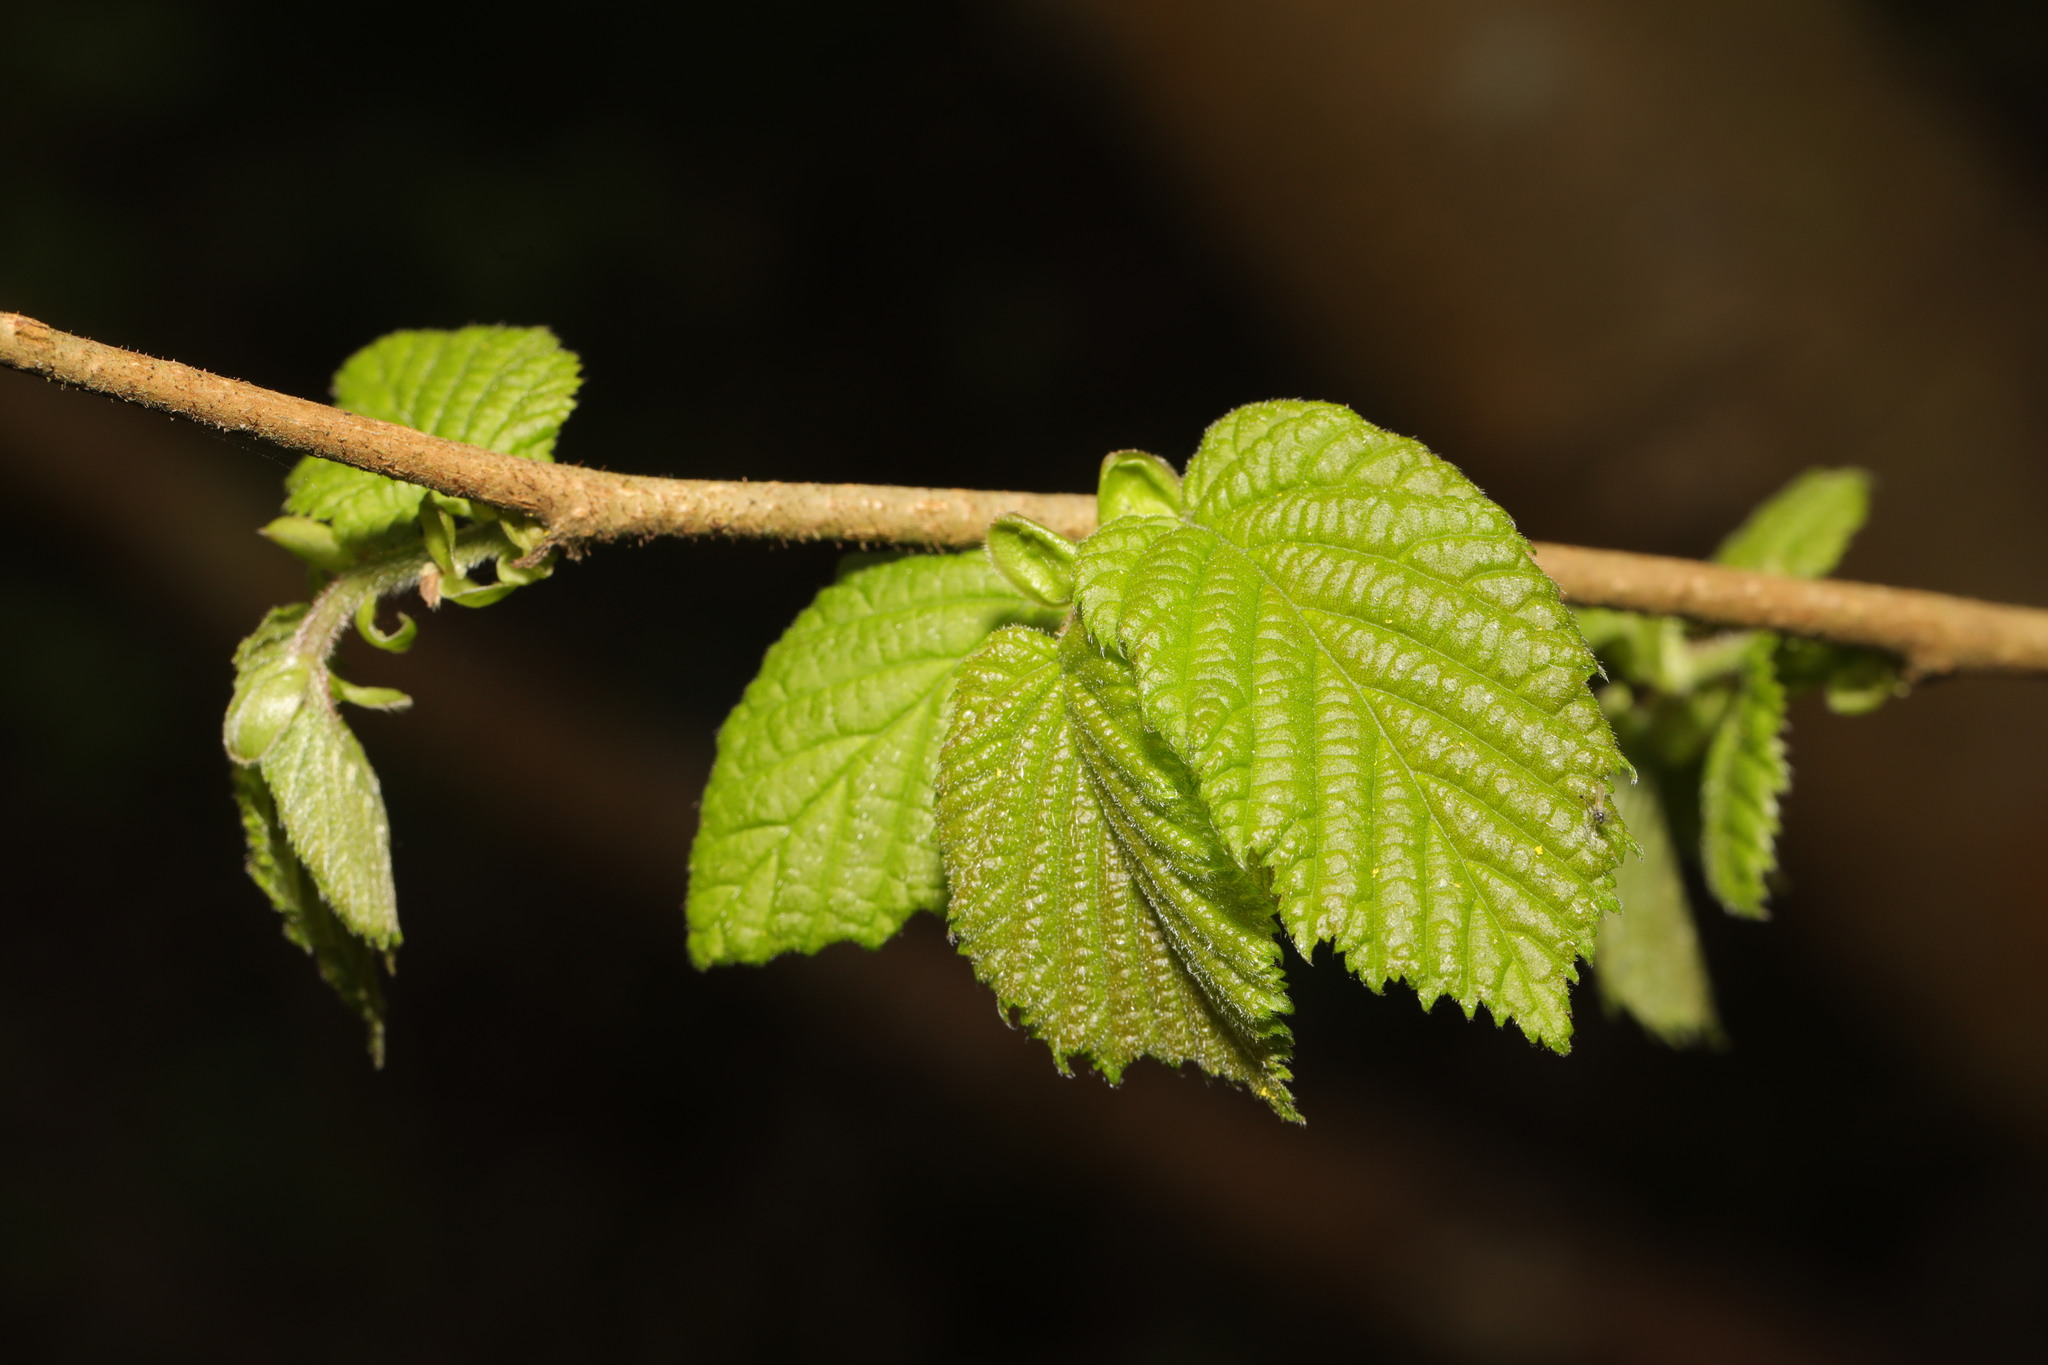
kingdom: Plantae
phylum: Tracheophyta
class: Magnoliopsida
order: Fagales
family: Betulaceae
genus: Corylus
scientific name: Corylus avellana
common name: European hazel
